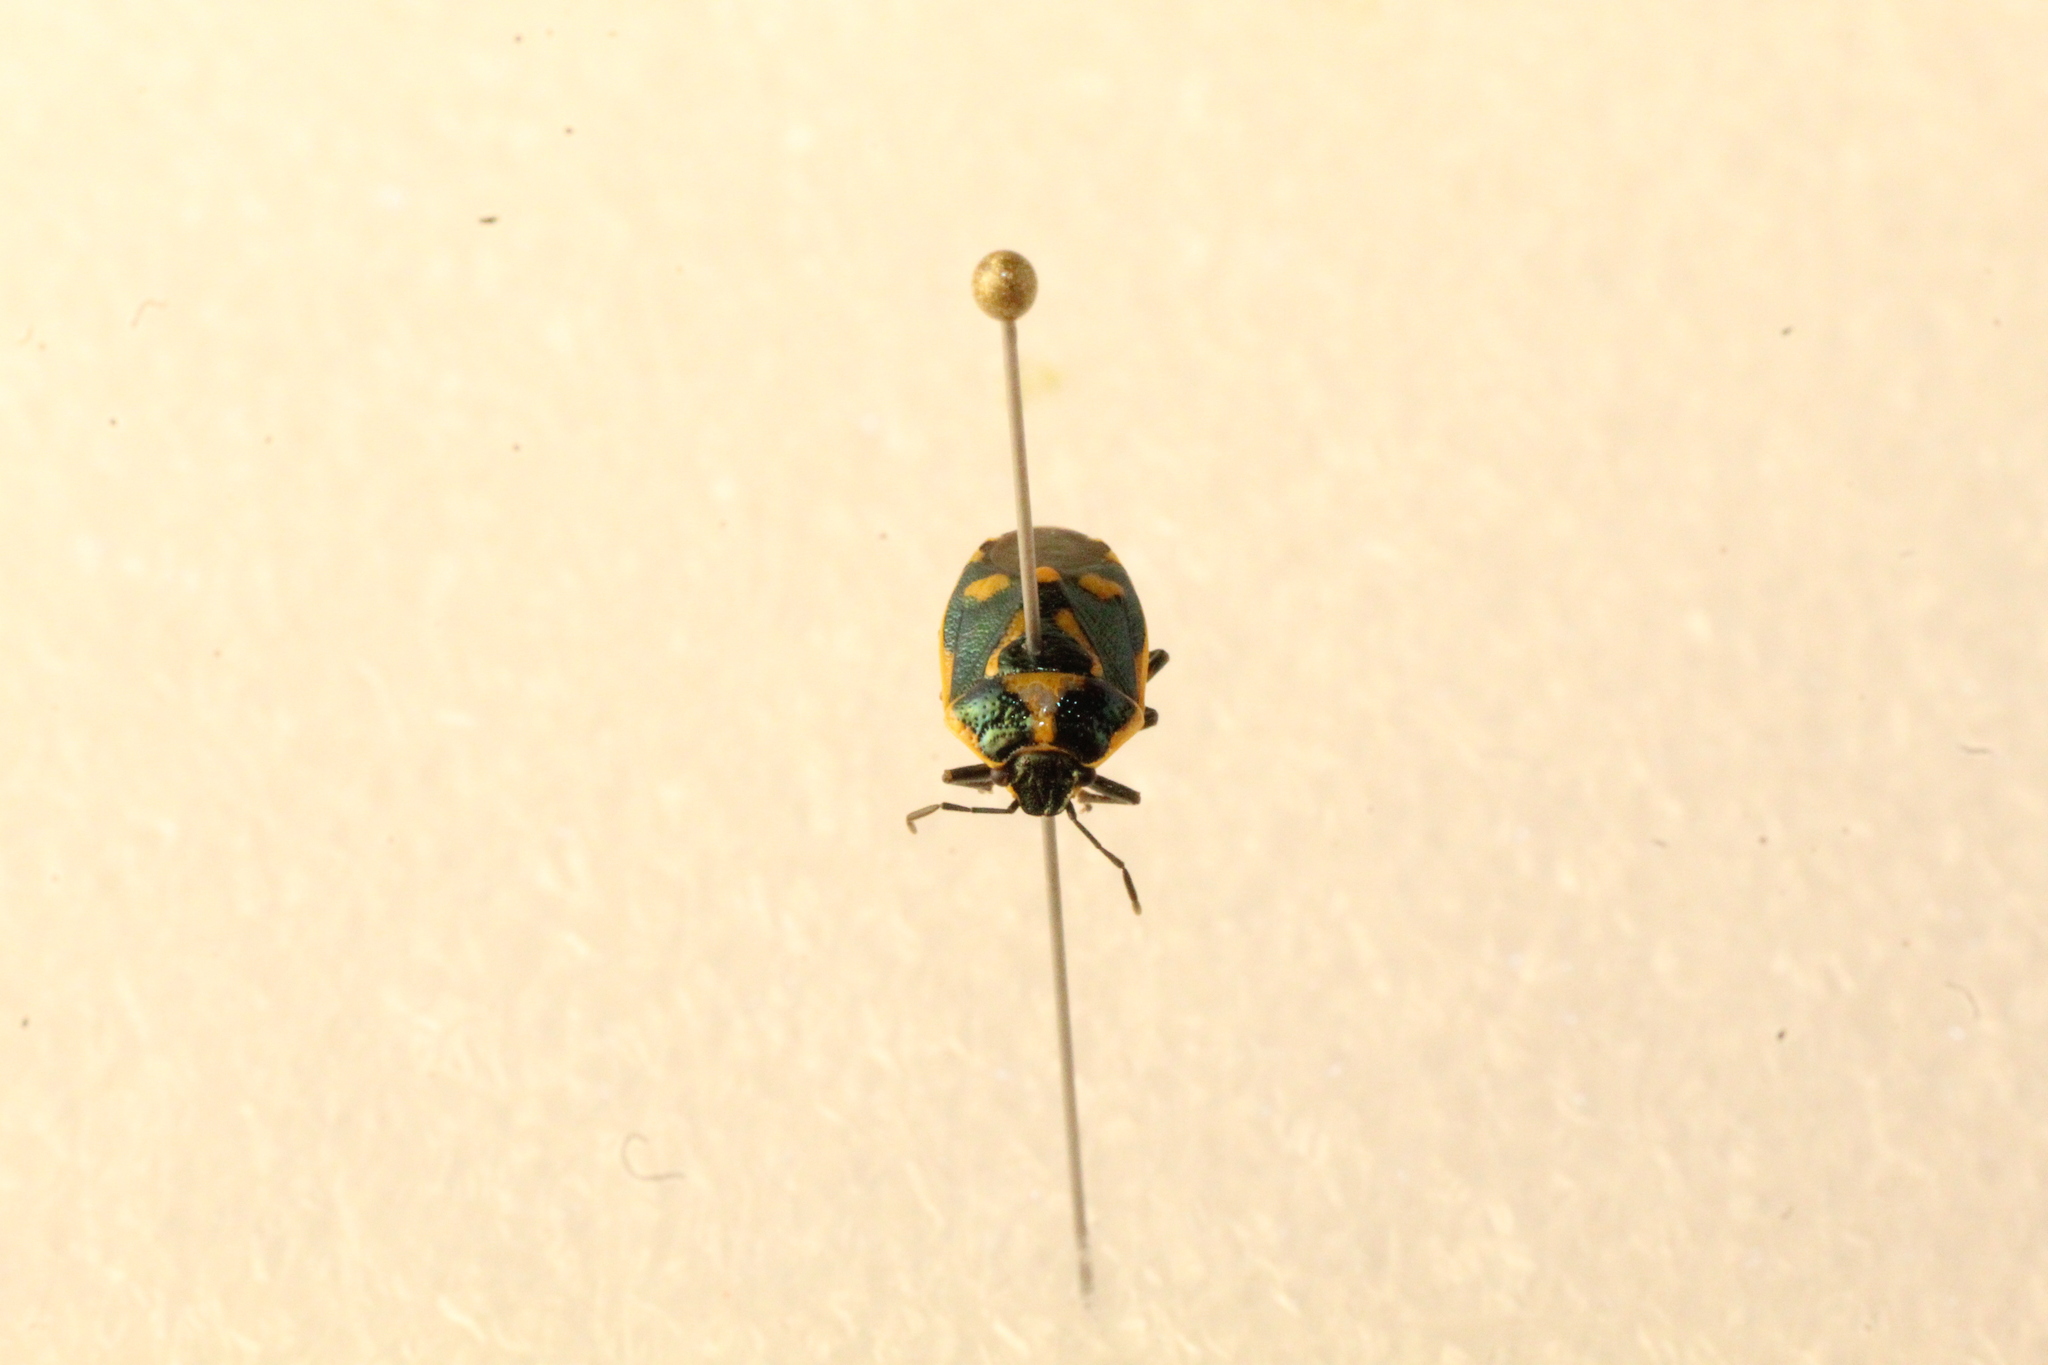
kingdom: Animalia
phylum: Arthropoda
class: Insecta
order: Hemiptera
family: Pentatomidae
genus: Eurydema
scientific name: Eurydema oleracea
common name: Cabbage bug
